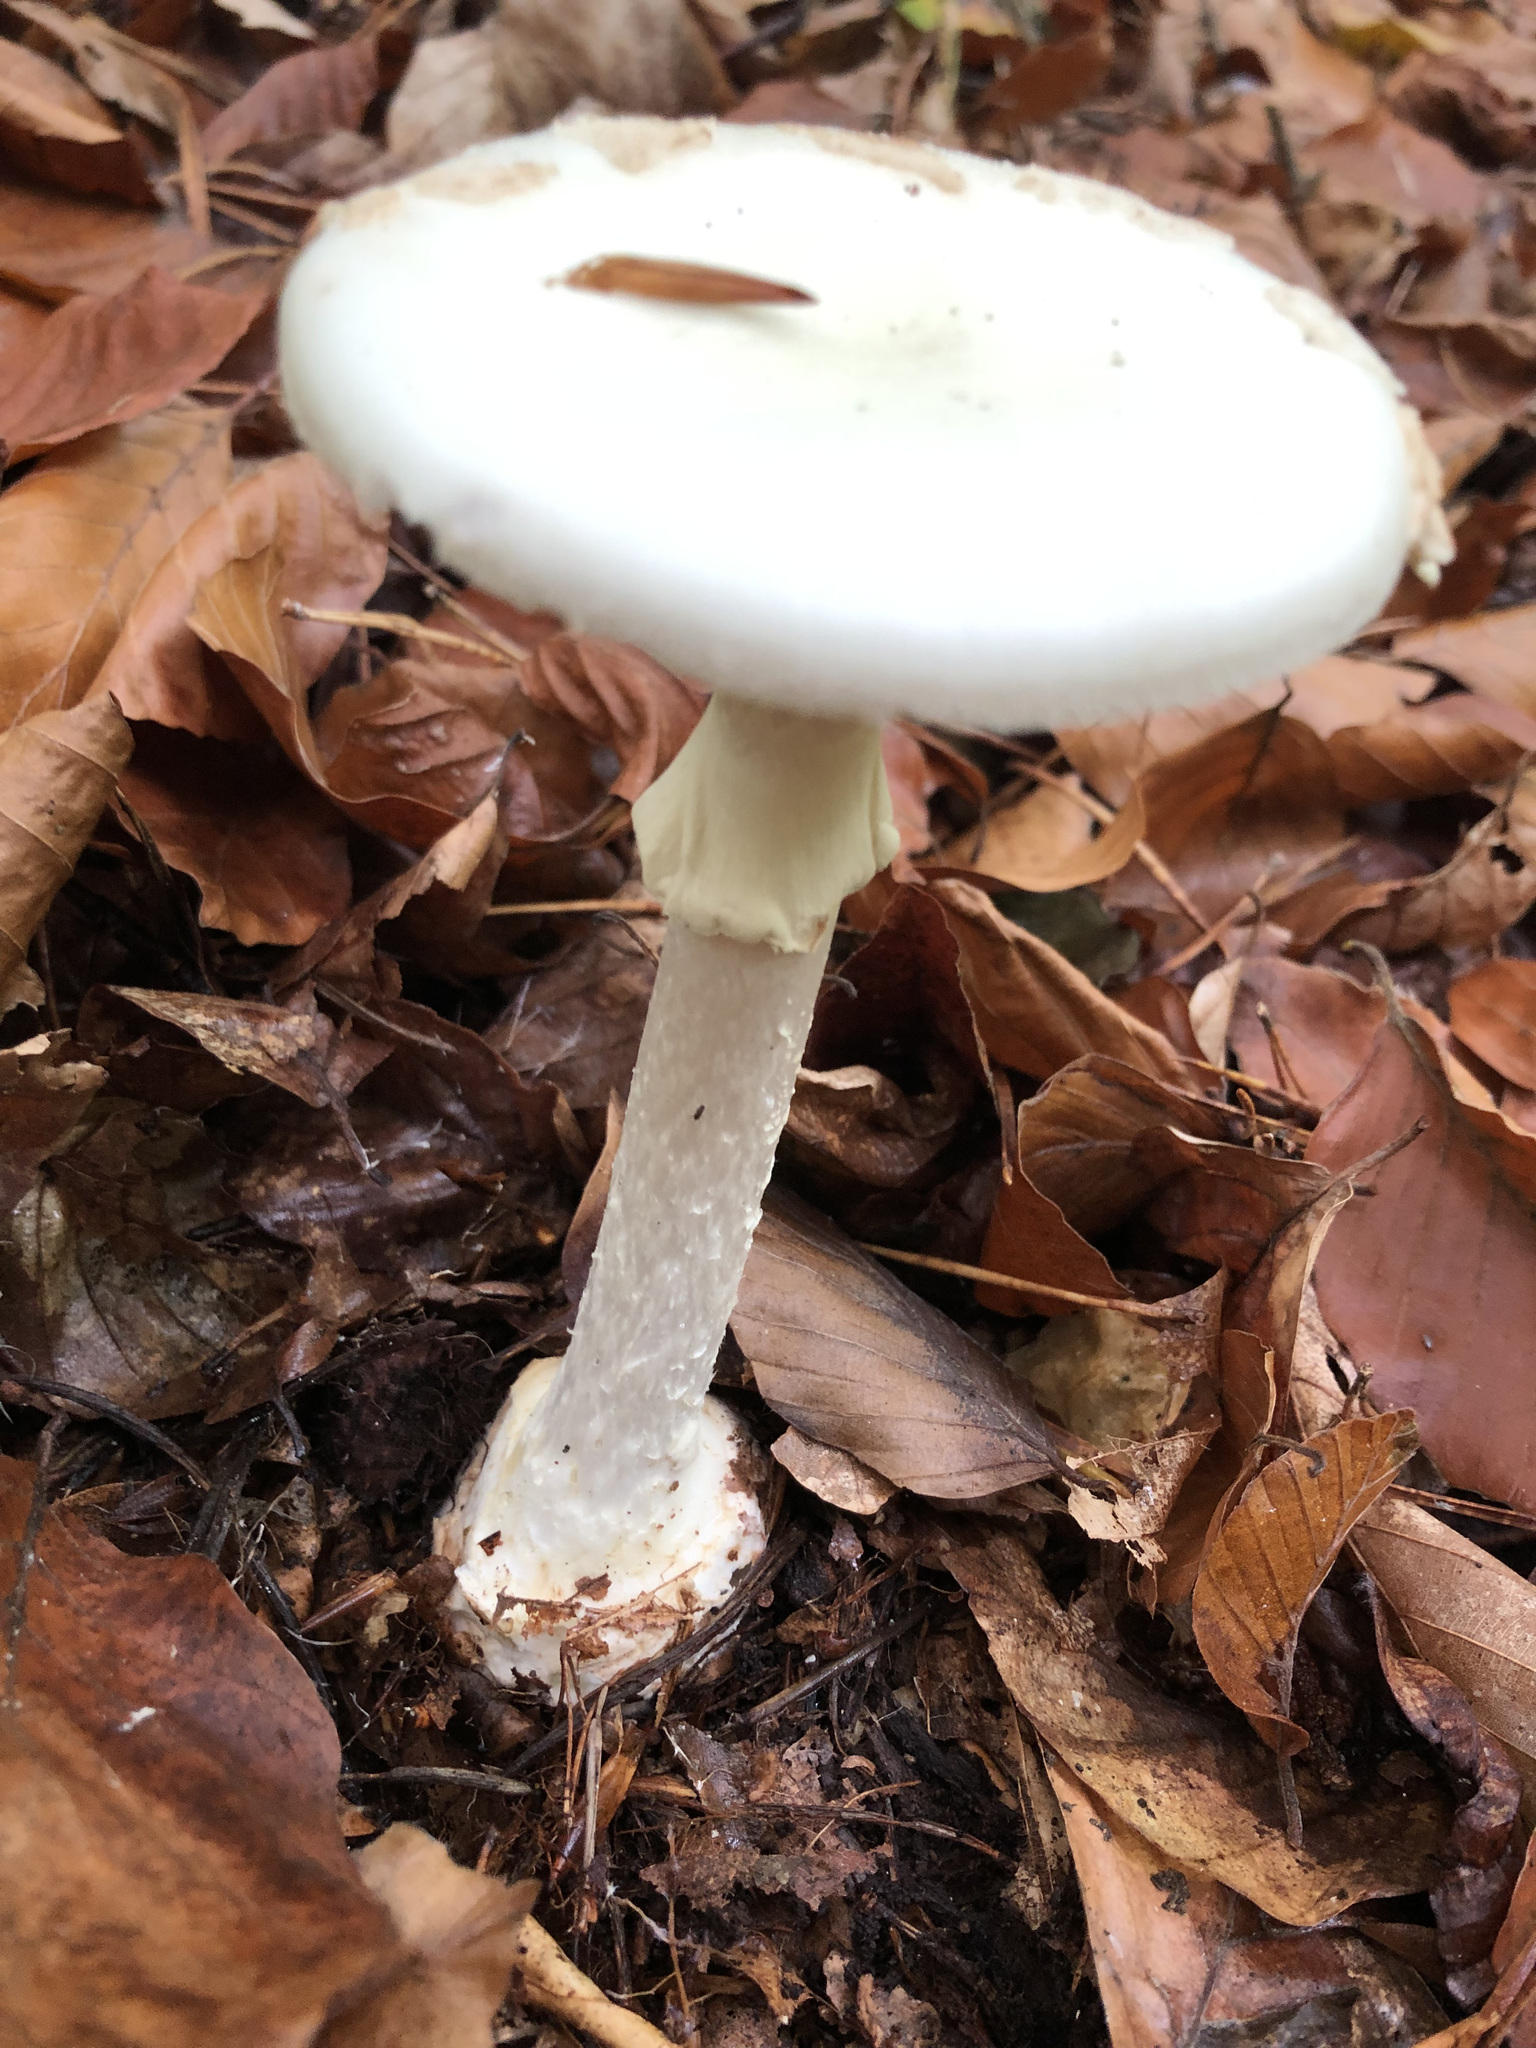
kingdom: Fungi
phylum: Basidiomycota
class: Agaricomycetes
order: Agaricales
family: Amanitaceae
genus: Amanita
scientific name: Amanita citrina
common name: False death-cap
